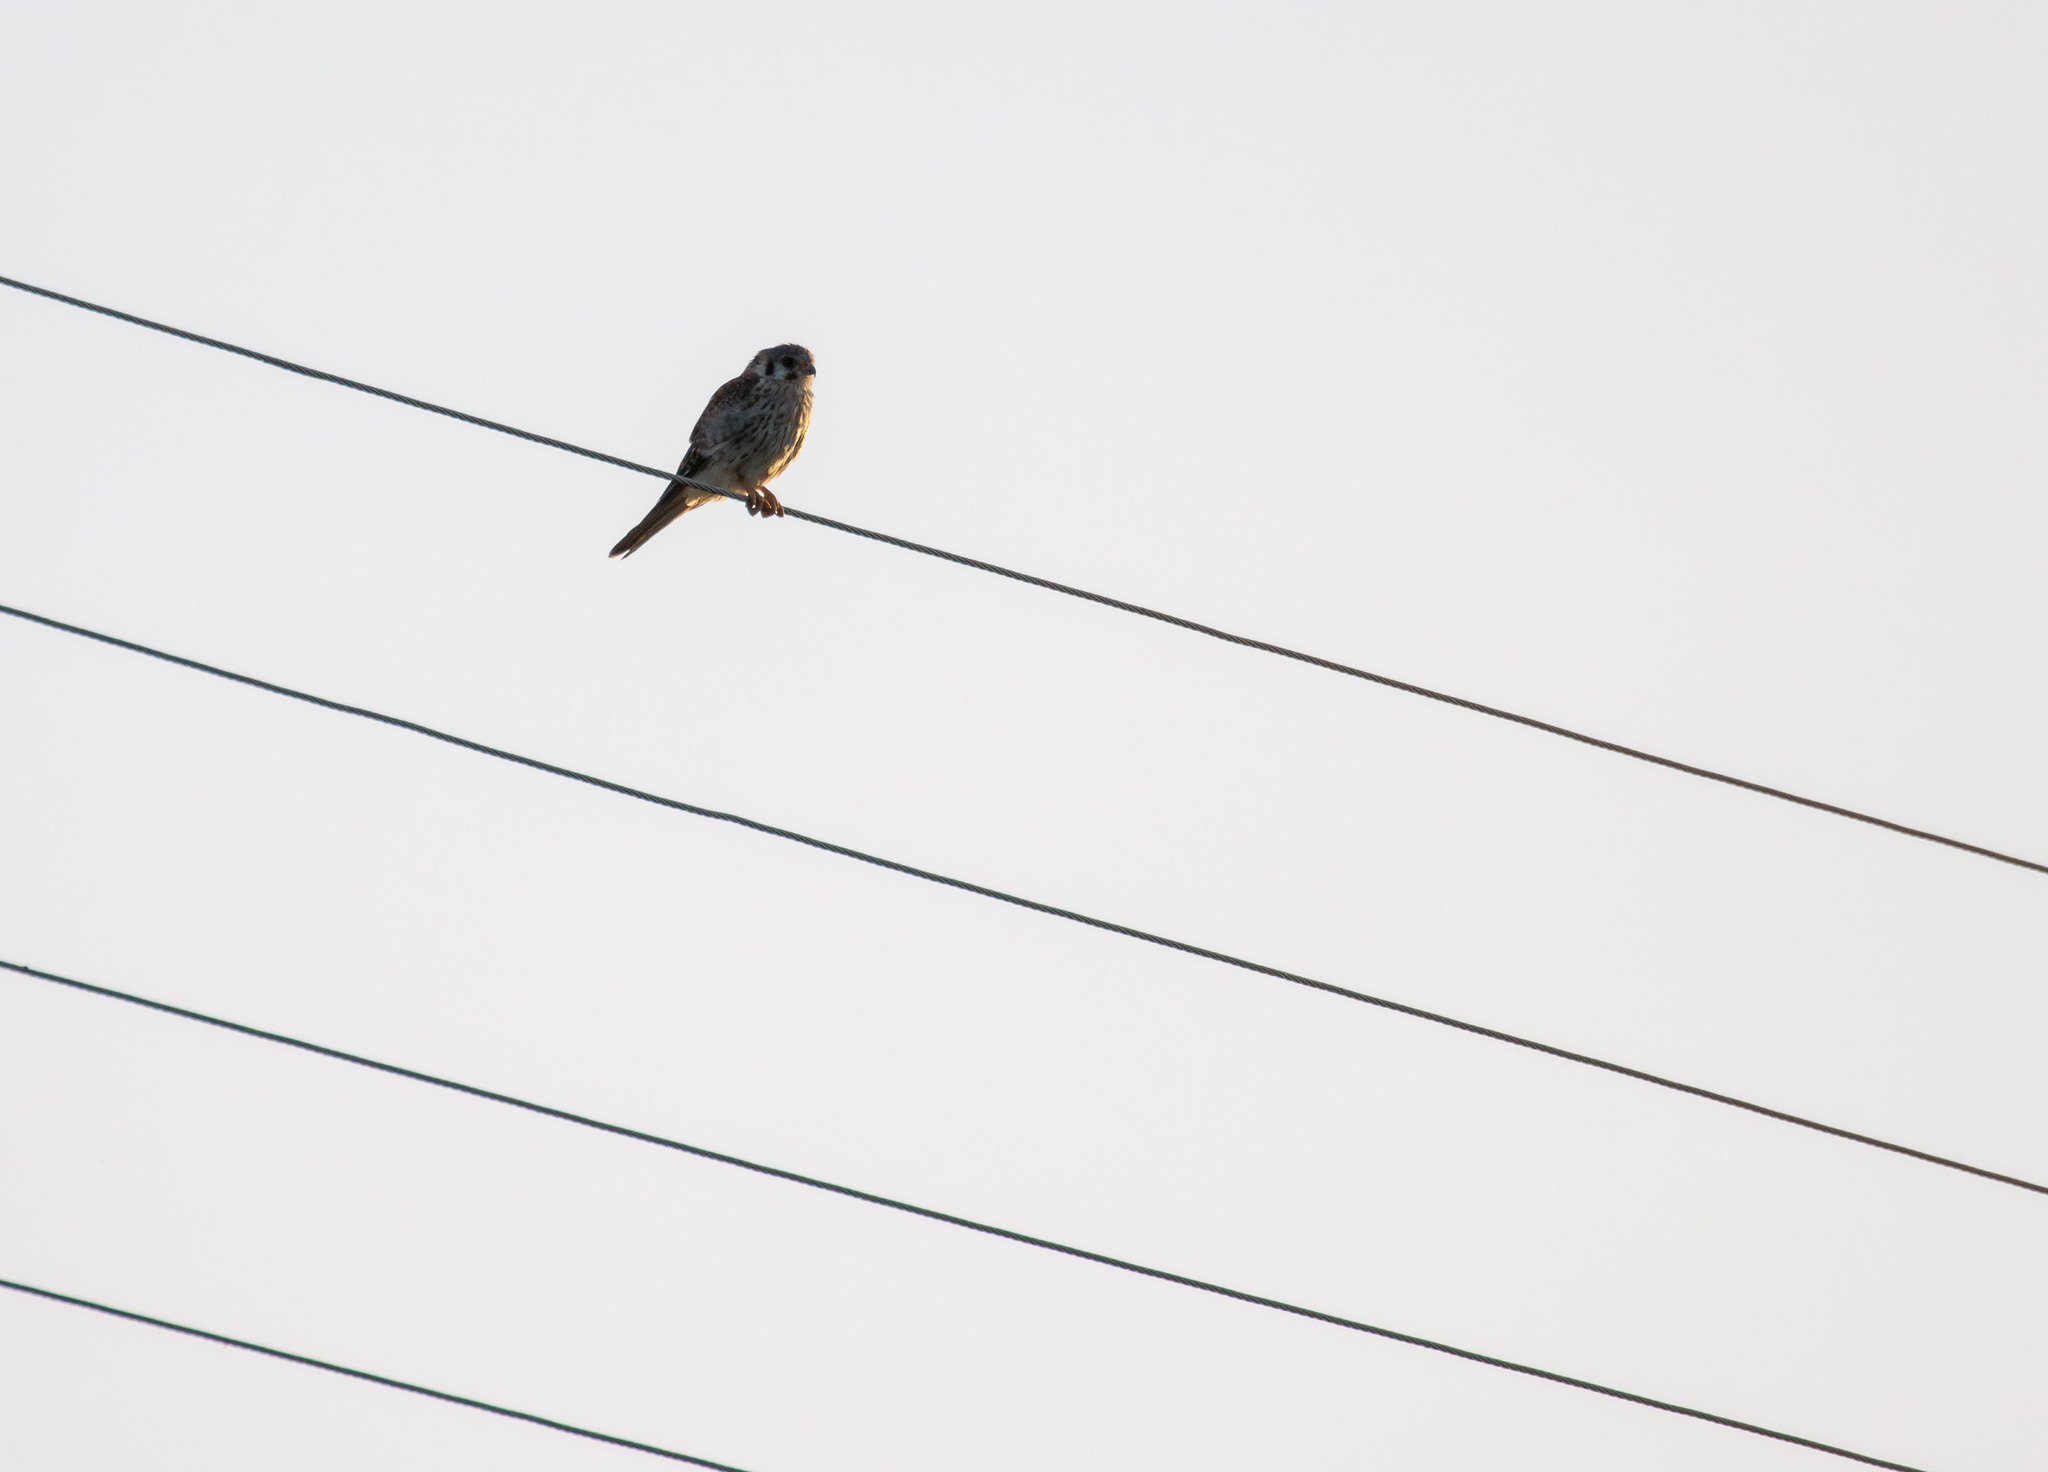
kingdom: Animalia
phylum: Chordata
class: Aves
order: Falconiformes
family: Falconidae
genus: Falco
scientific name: Falco sparverius
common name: American kestrel
